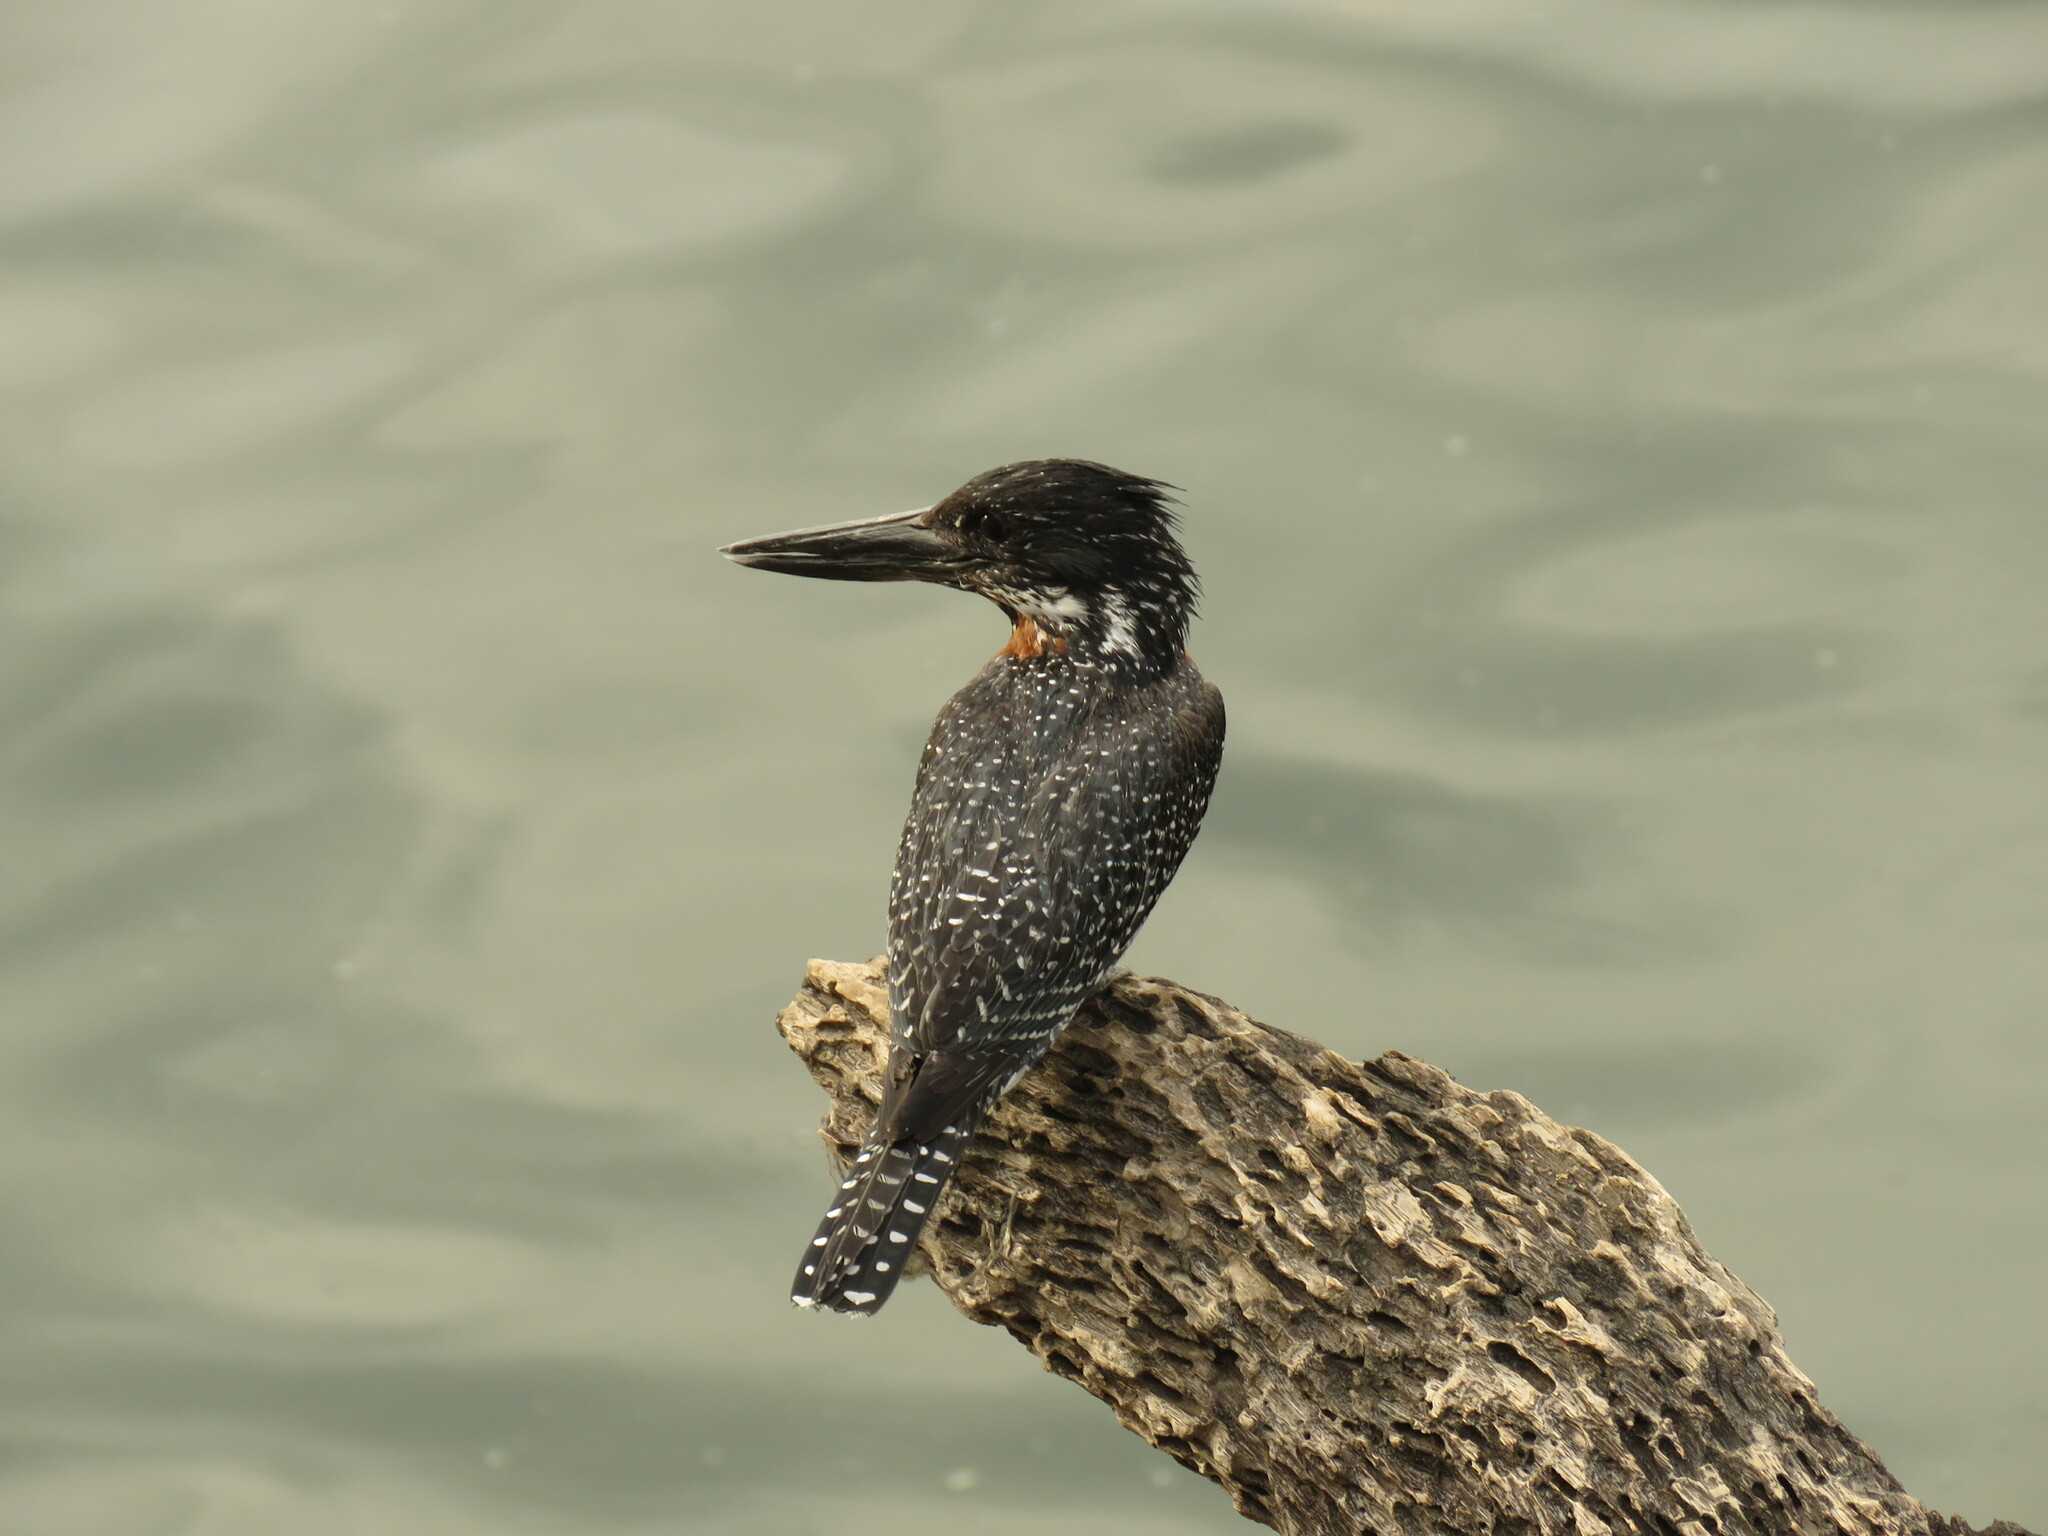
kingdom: Animalia
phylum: Chordata
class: Aves
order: Coraciiformes
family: Alcedinidae
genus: Megaceryle
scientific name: Megaceryle maxima
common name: Giant kingfisher
